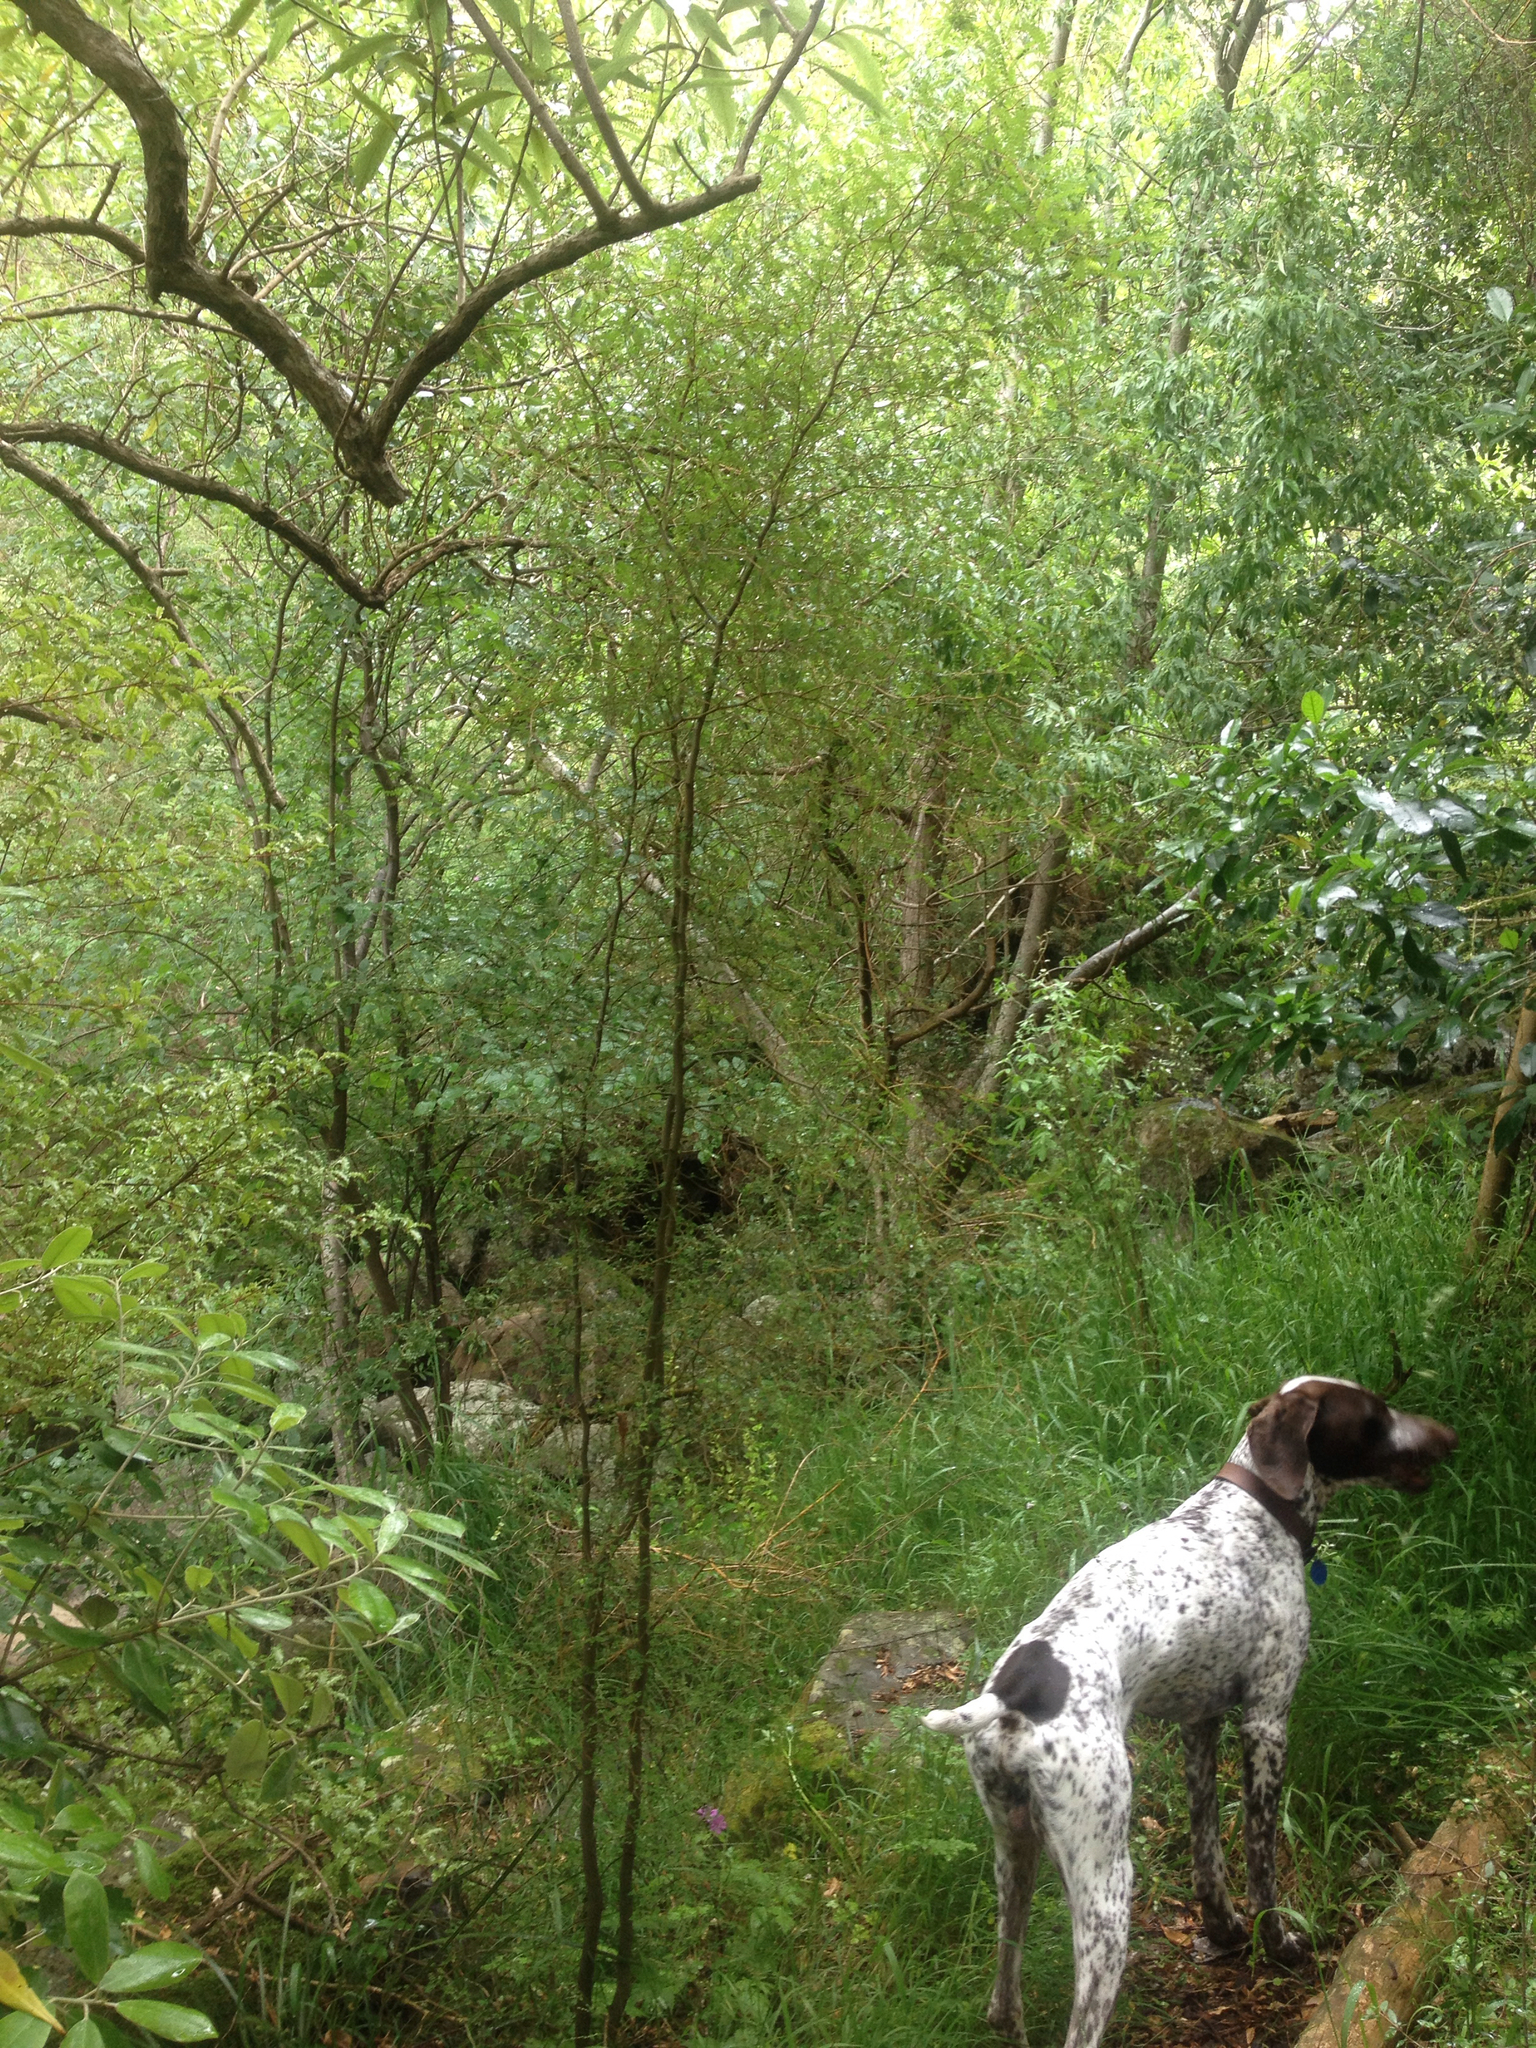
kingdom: Plantae
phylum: Tracheophyta
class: Magnoliopsida
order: Fabales
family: Fabaceae
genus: Sophora
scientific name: Sophora microphylla
